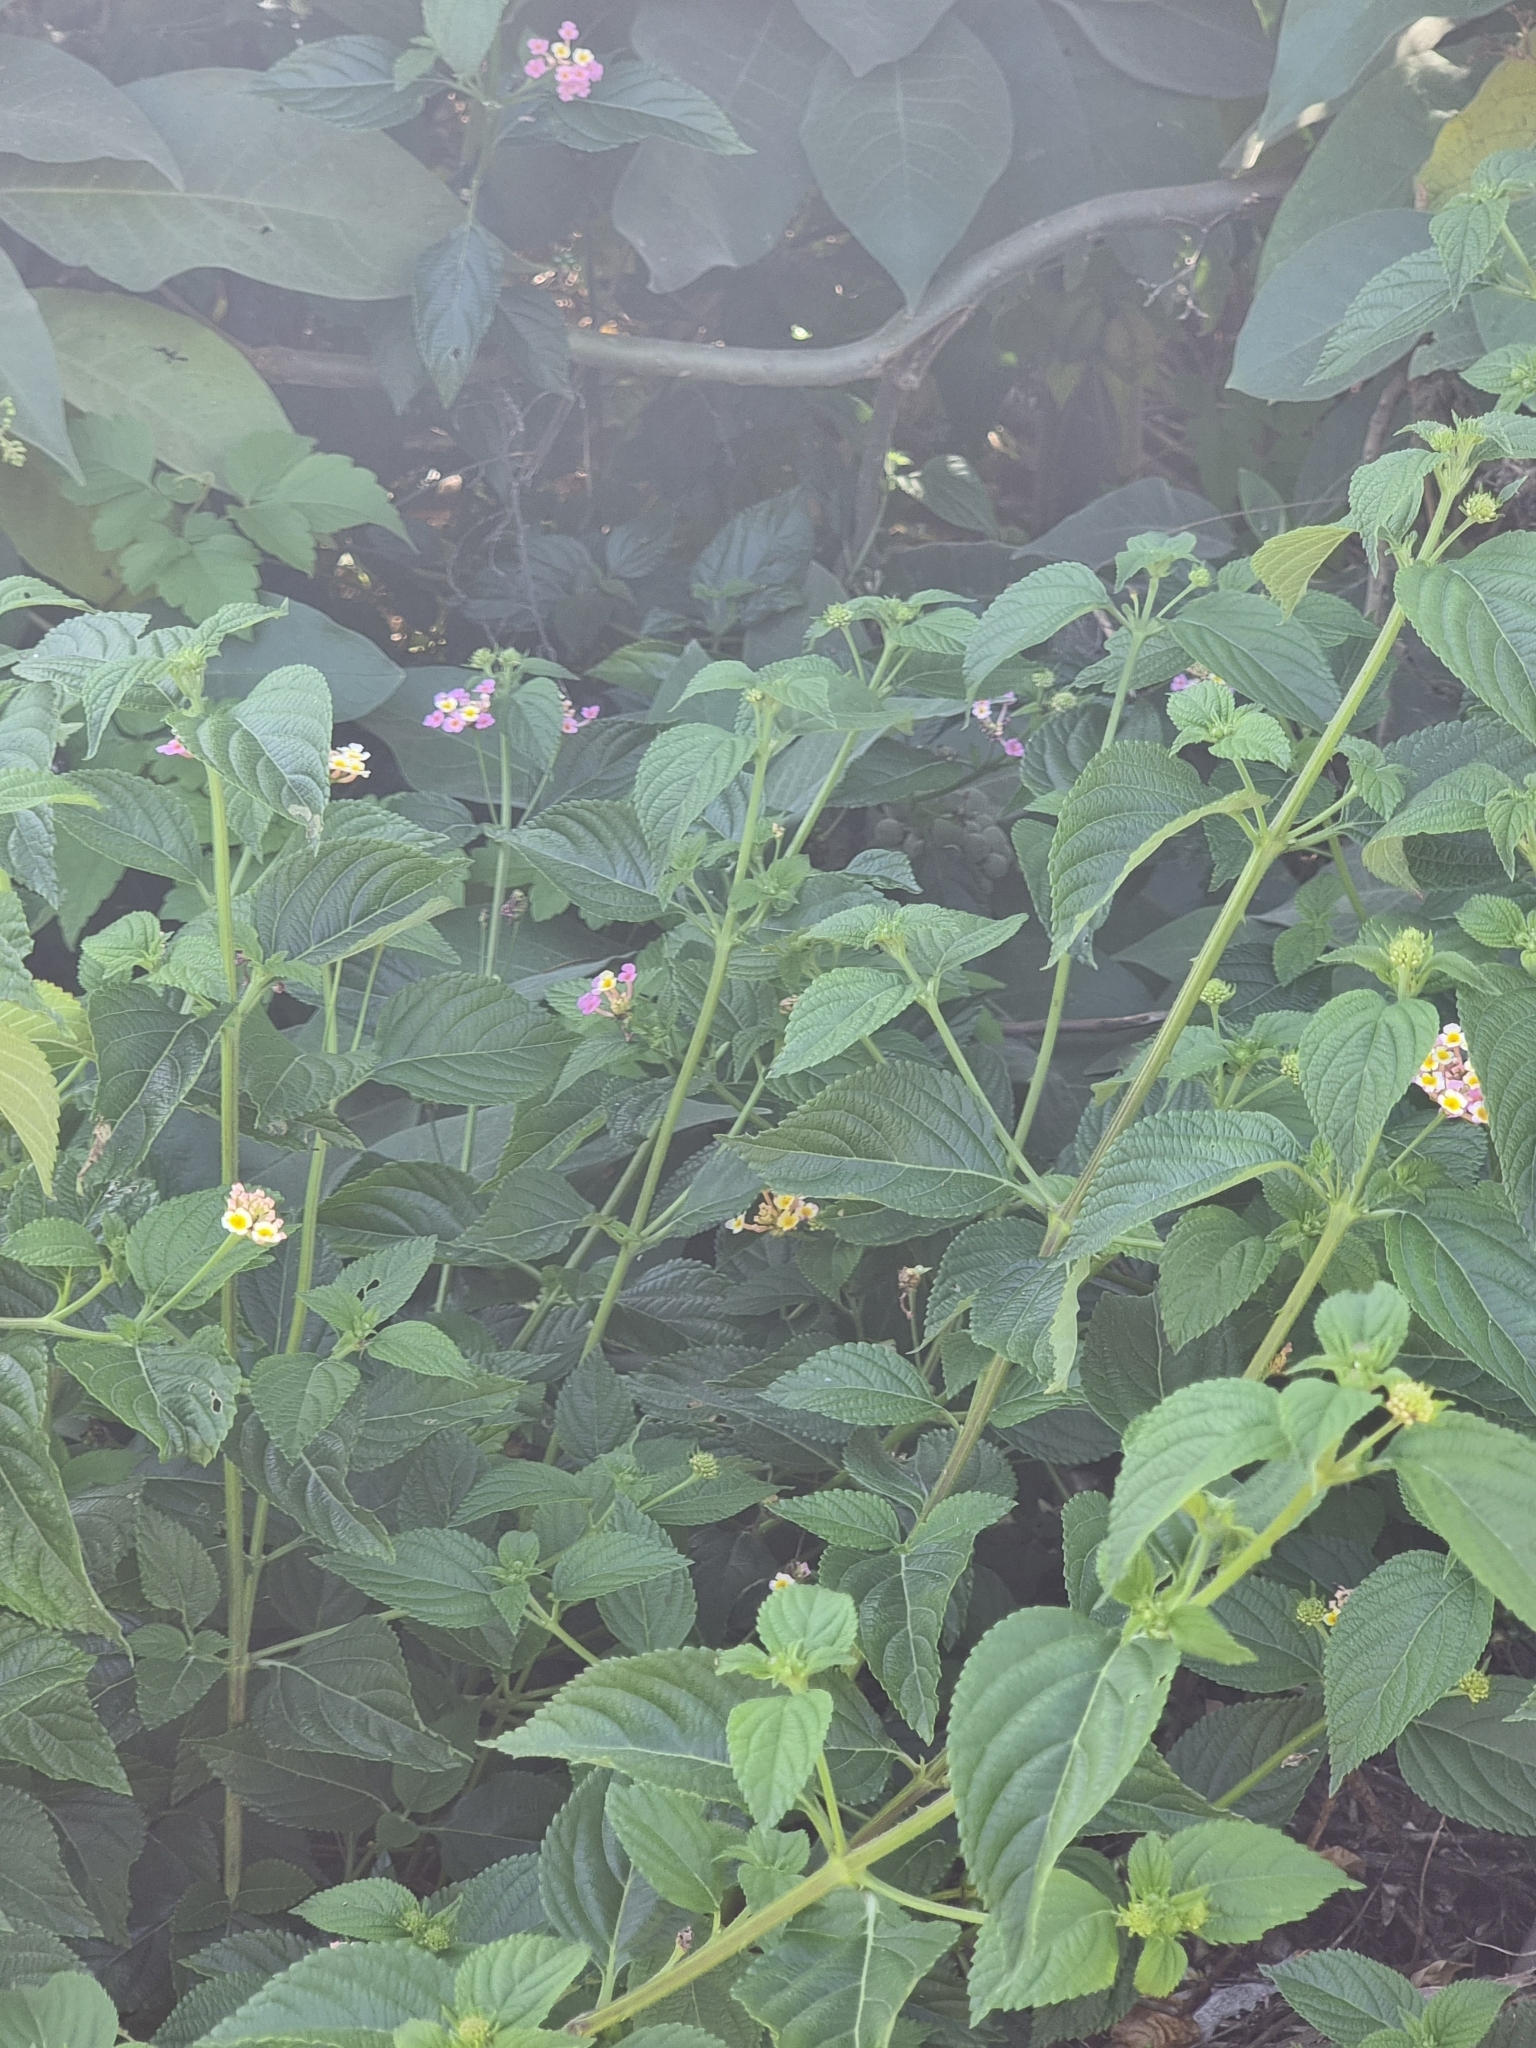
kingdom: Plantae
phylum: Tracheophyta
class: Magnoliopsida
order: Lamiales
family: Verbenaceae
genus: Lantana
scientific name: Lantana camara
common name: Lantana
